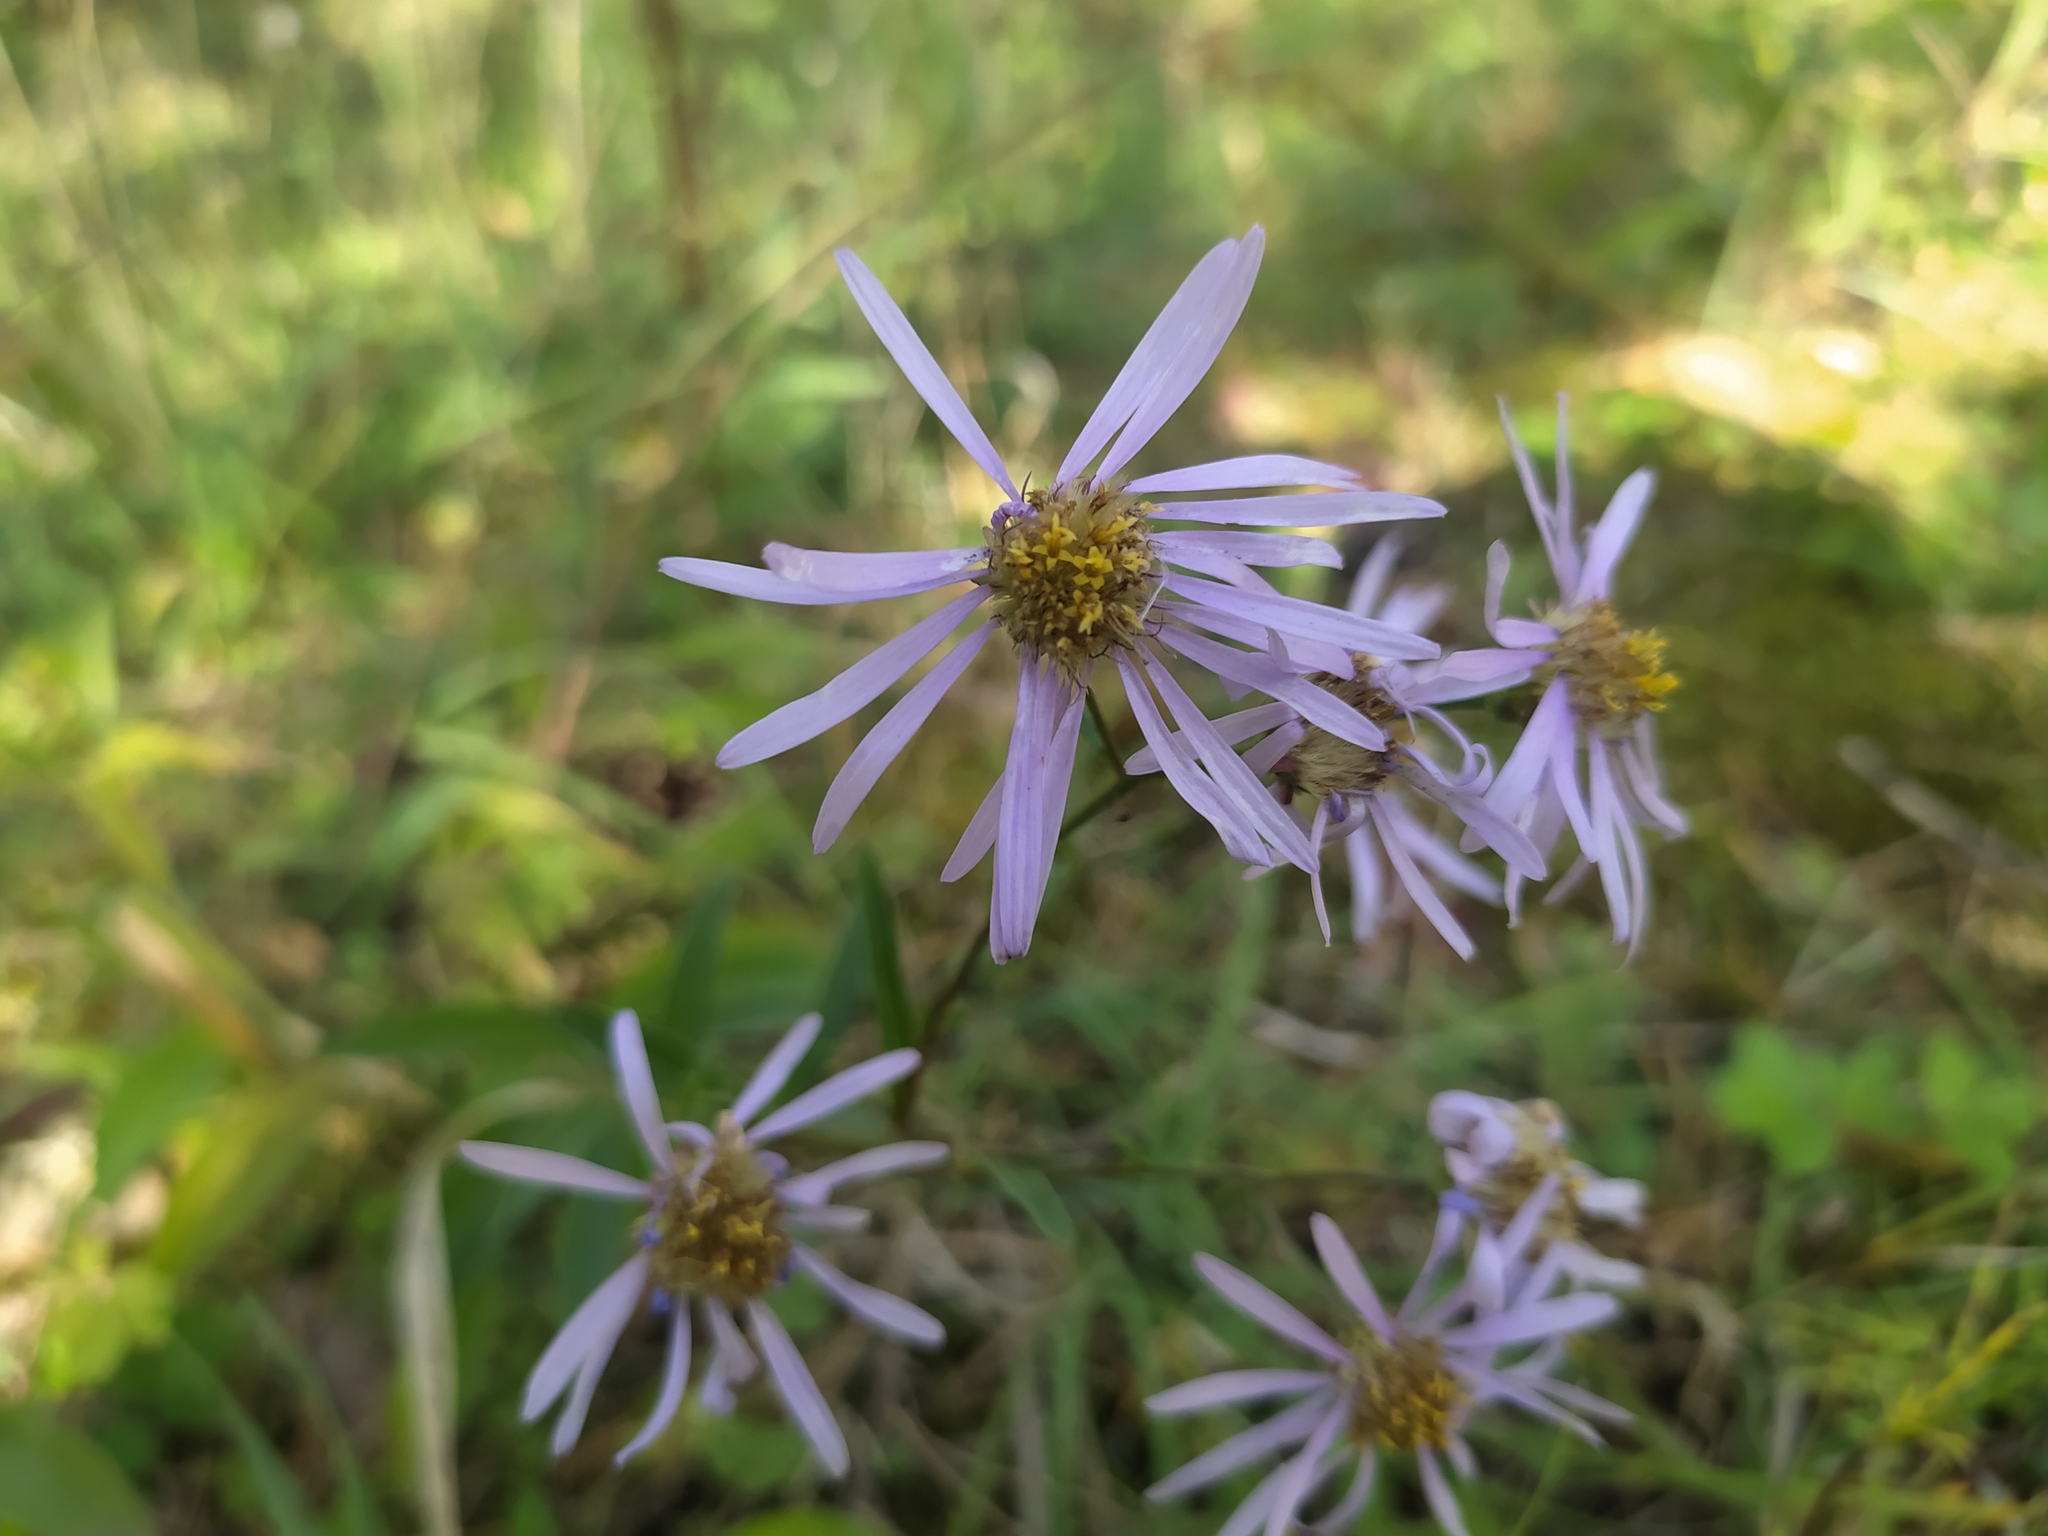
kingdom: Plantae
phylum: Tracheophyta
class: Magnoliopsida
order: Asterales
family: Asteraceae
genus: Aster
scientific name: Aster amellus
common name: European michaelmas daisy
